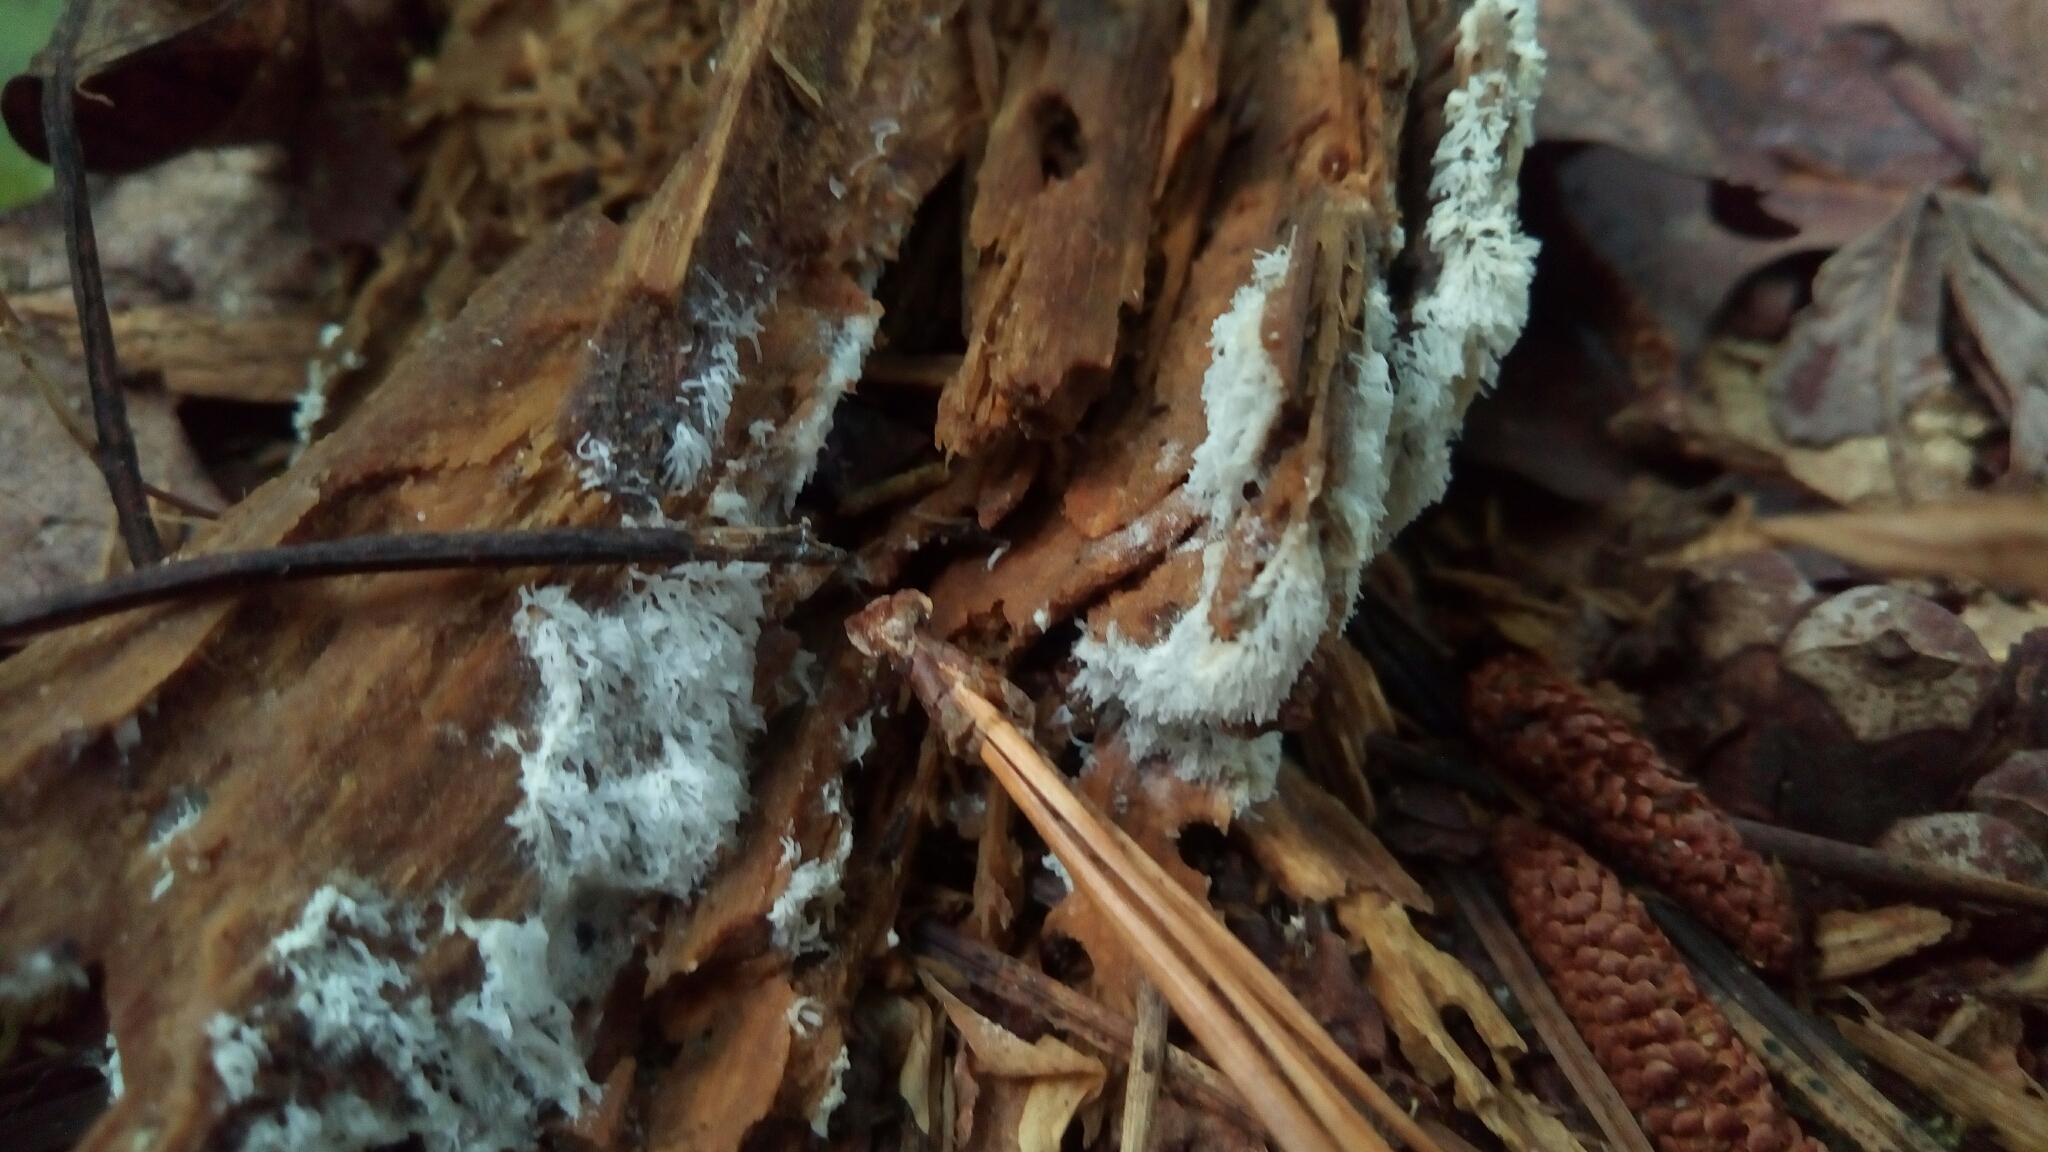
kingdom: Protozoa
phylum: Mycetozoa
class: Protosteliomycetes
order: Ceratiomyxales
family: Ceratiomyxaceae
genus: Ceratiomyxa
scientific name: Ceratiomyxa fruticulosa
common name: Honeycomb coral slime mold
